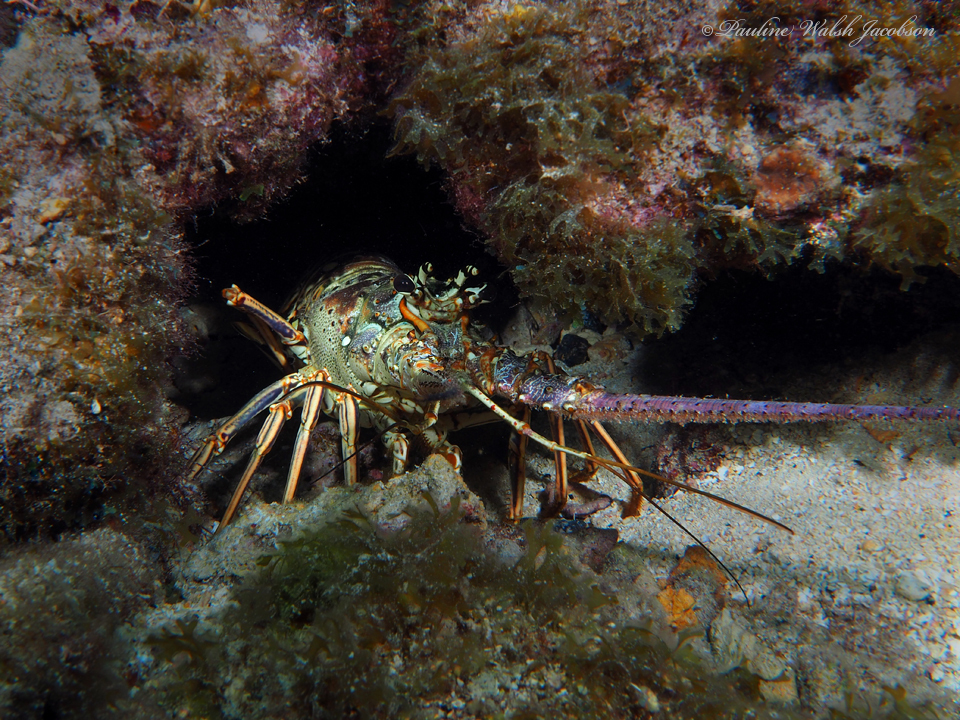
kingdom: Animalia
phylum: Arthropoda
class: Malacostraca
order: Decapoda
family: Palinuridae
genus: Panulirus
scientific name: Panulirus argus
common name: Caribbean spiny lobster
